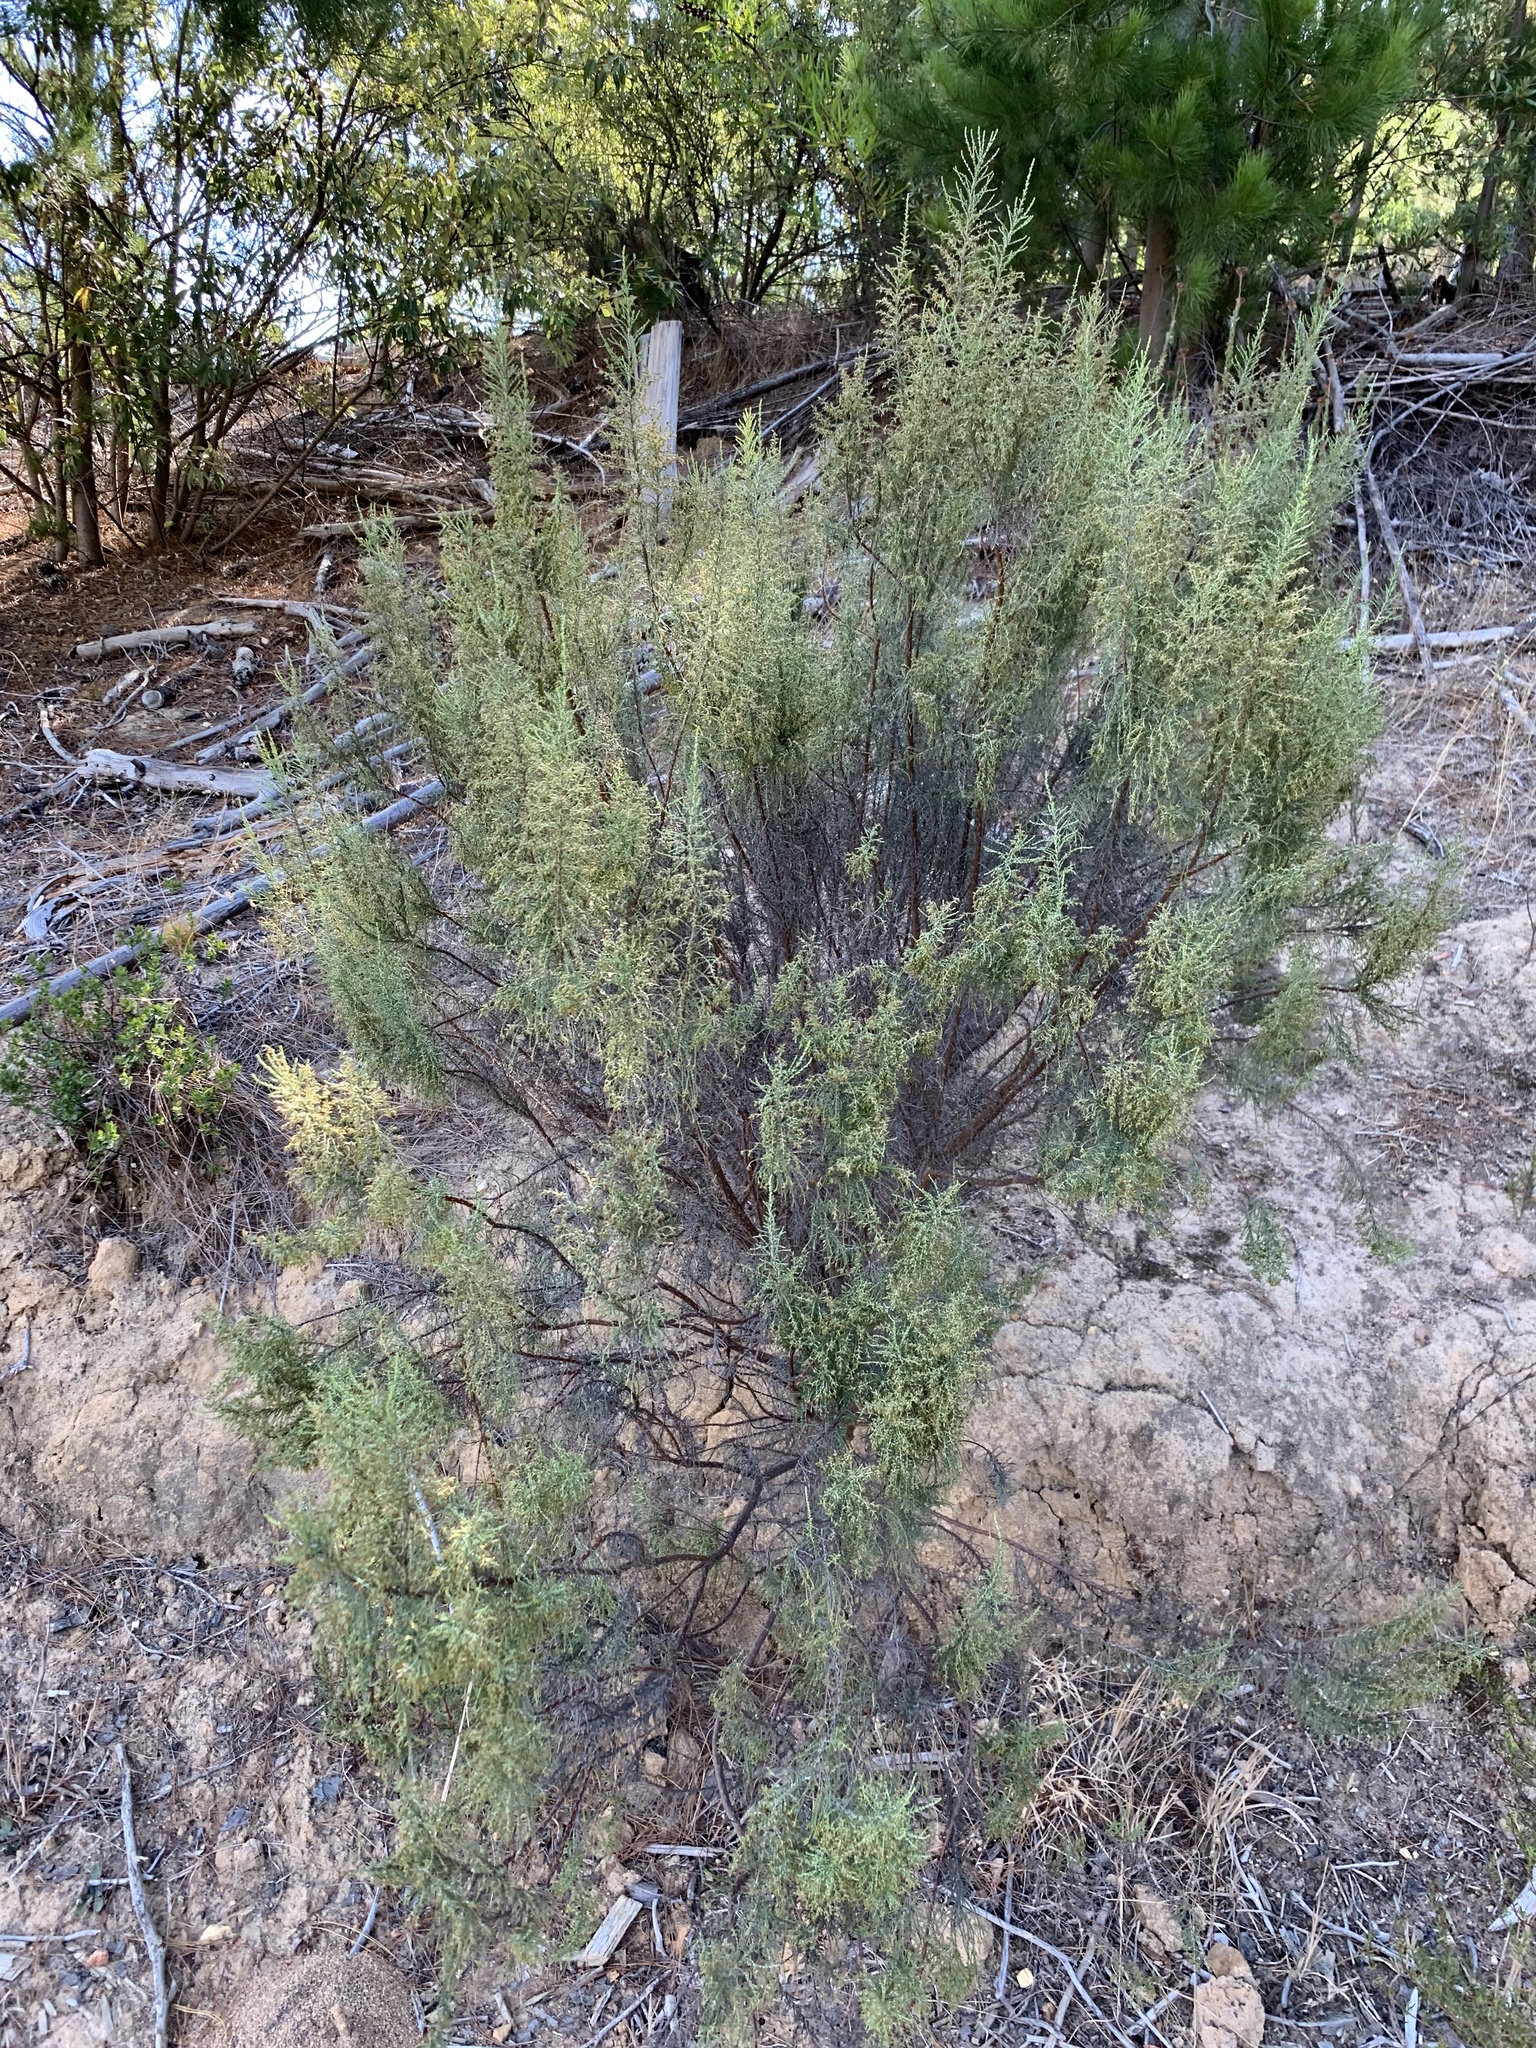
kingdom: Plantae
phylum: Tracheophyta
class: Magnoliopsida
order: Asterales
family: Asteraceae
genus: Dicerothamnus
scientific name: Dicerothamnus rhinocerotis
